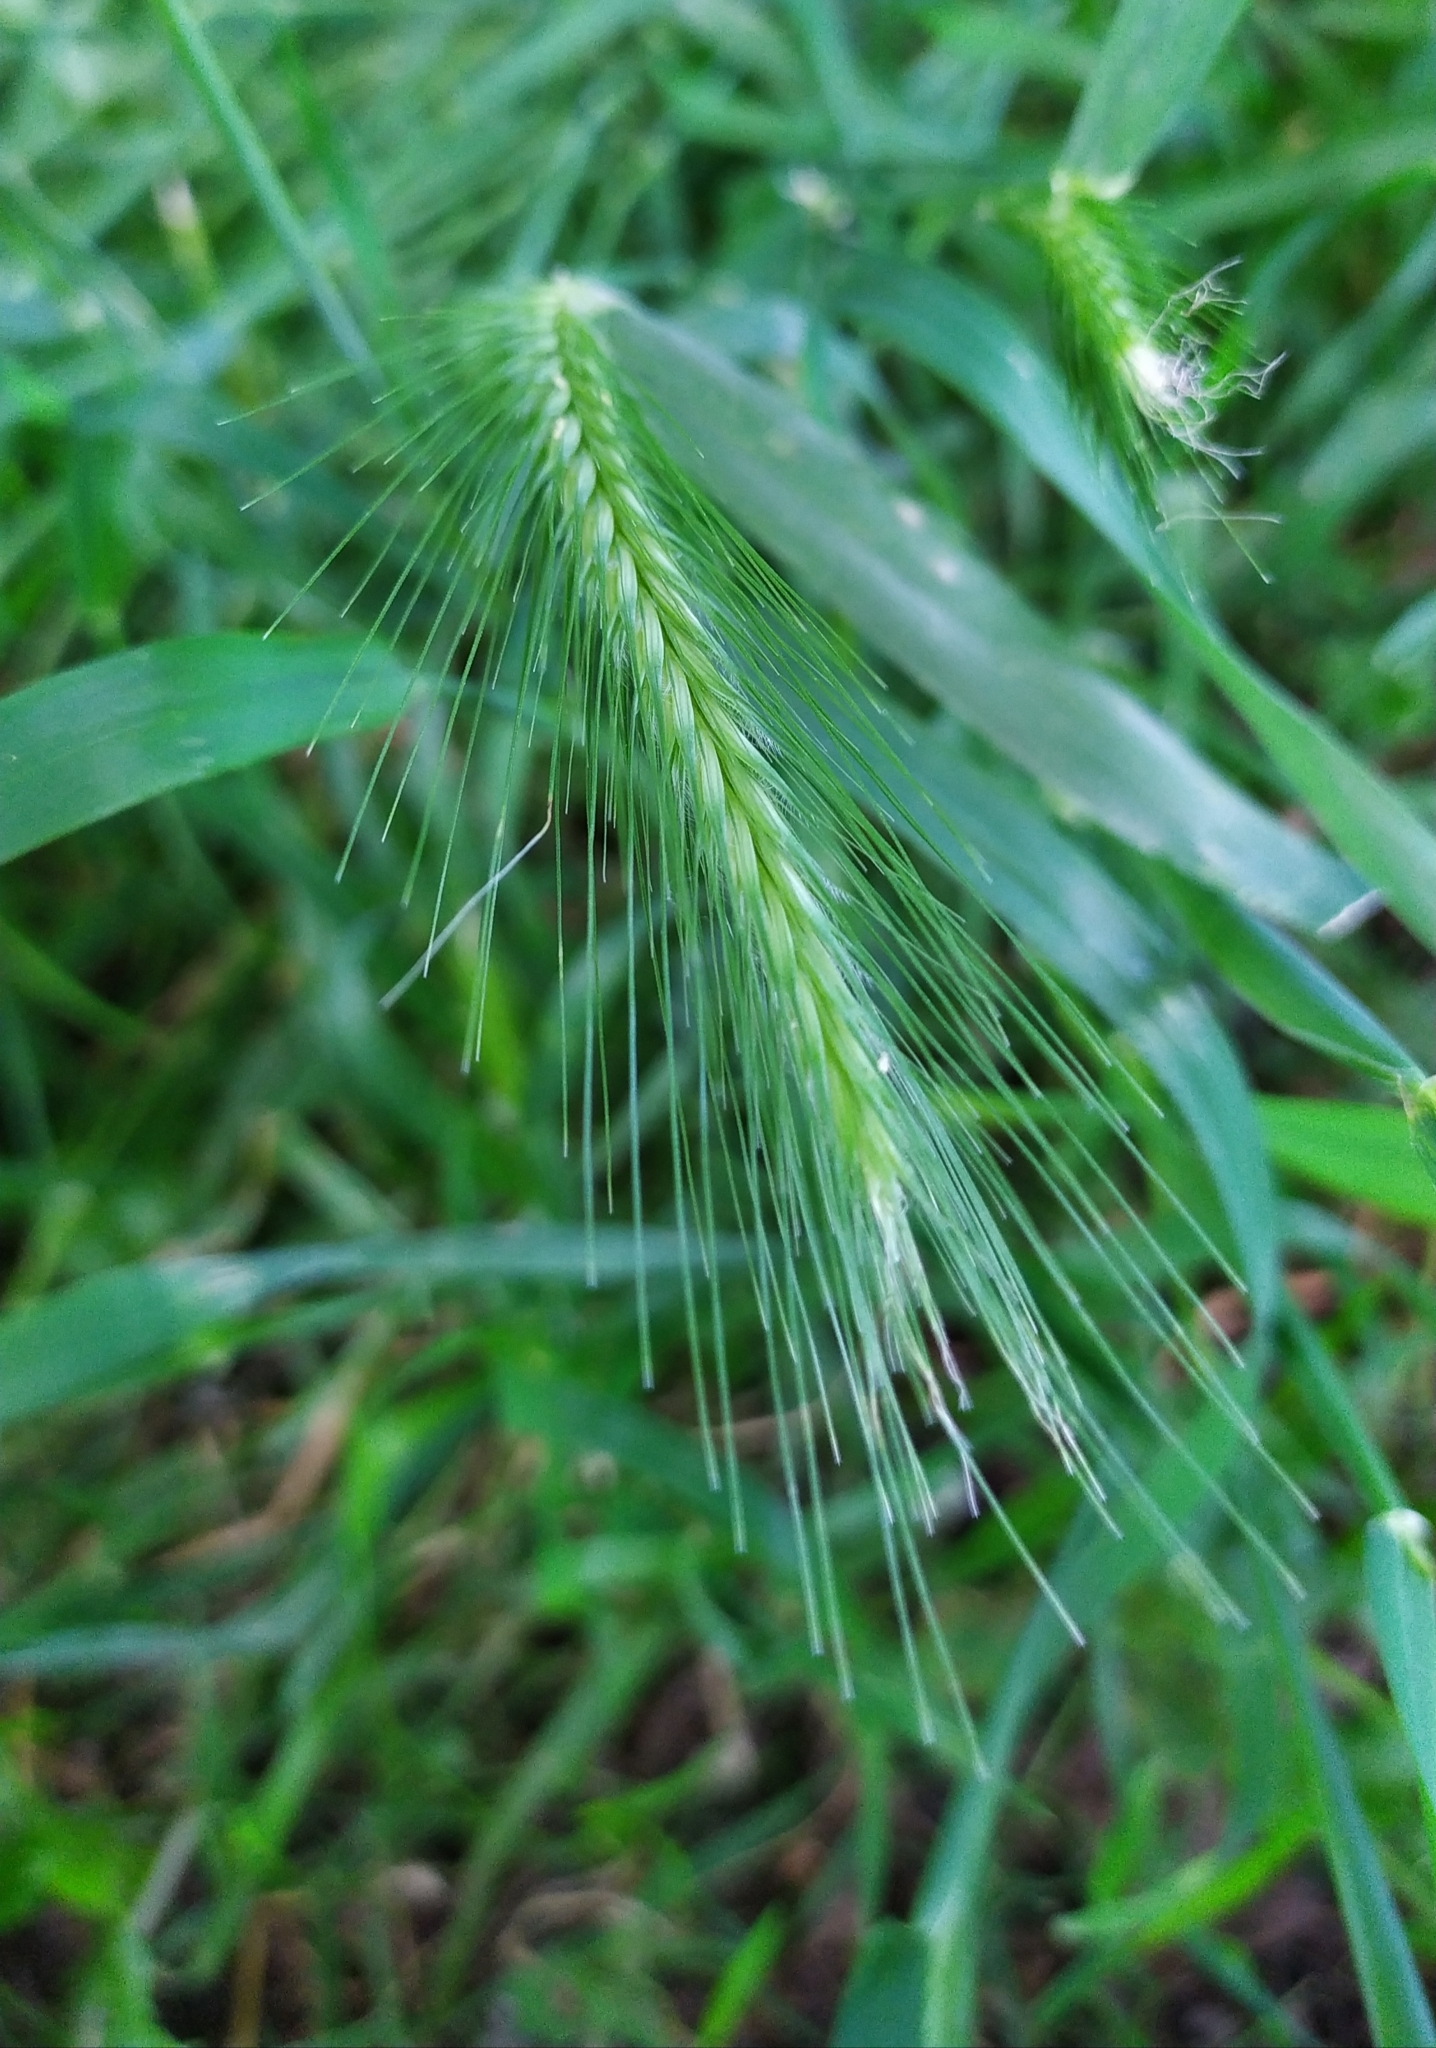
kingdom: Plantae
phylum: Tracheophyta
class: Liliopsida
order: Poales
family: Poaceae
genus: Hordeum
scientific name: Hordeum murinum
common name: Wall barley
